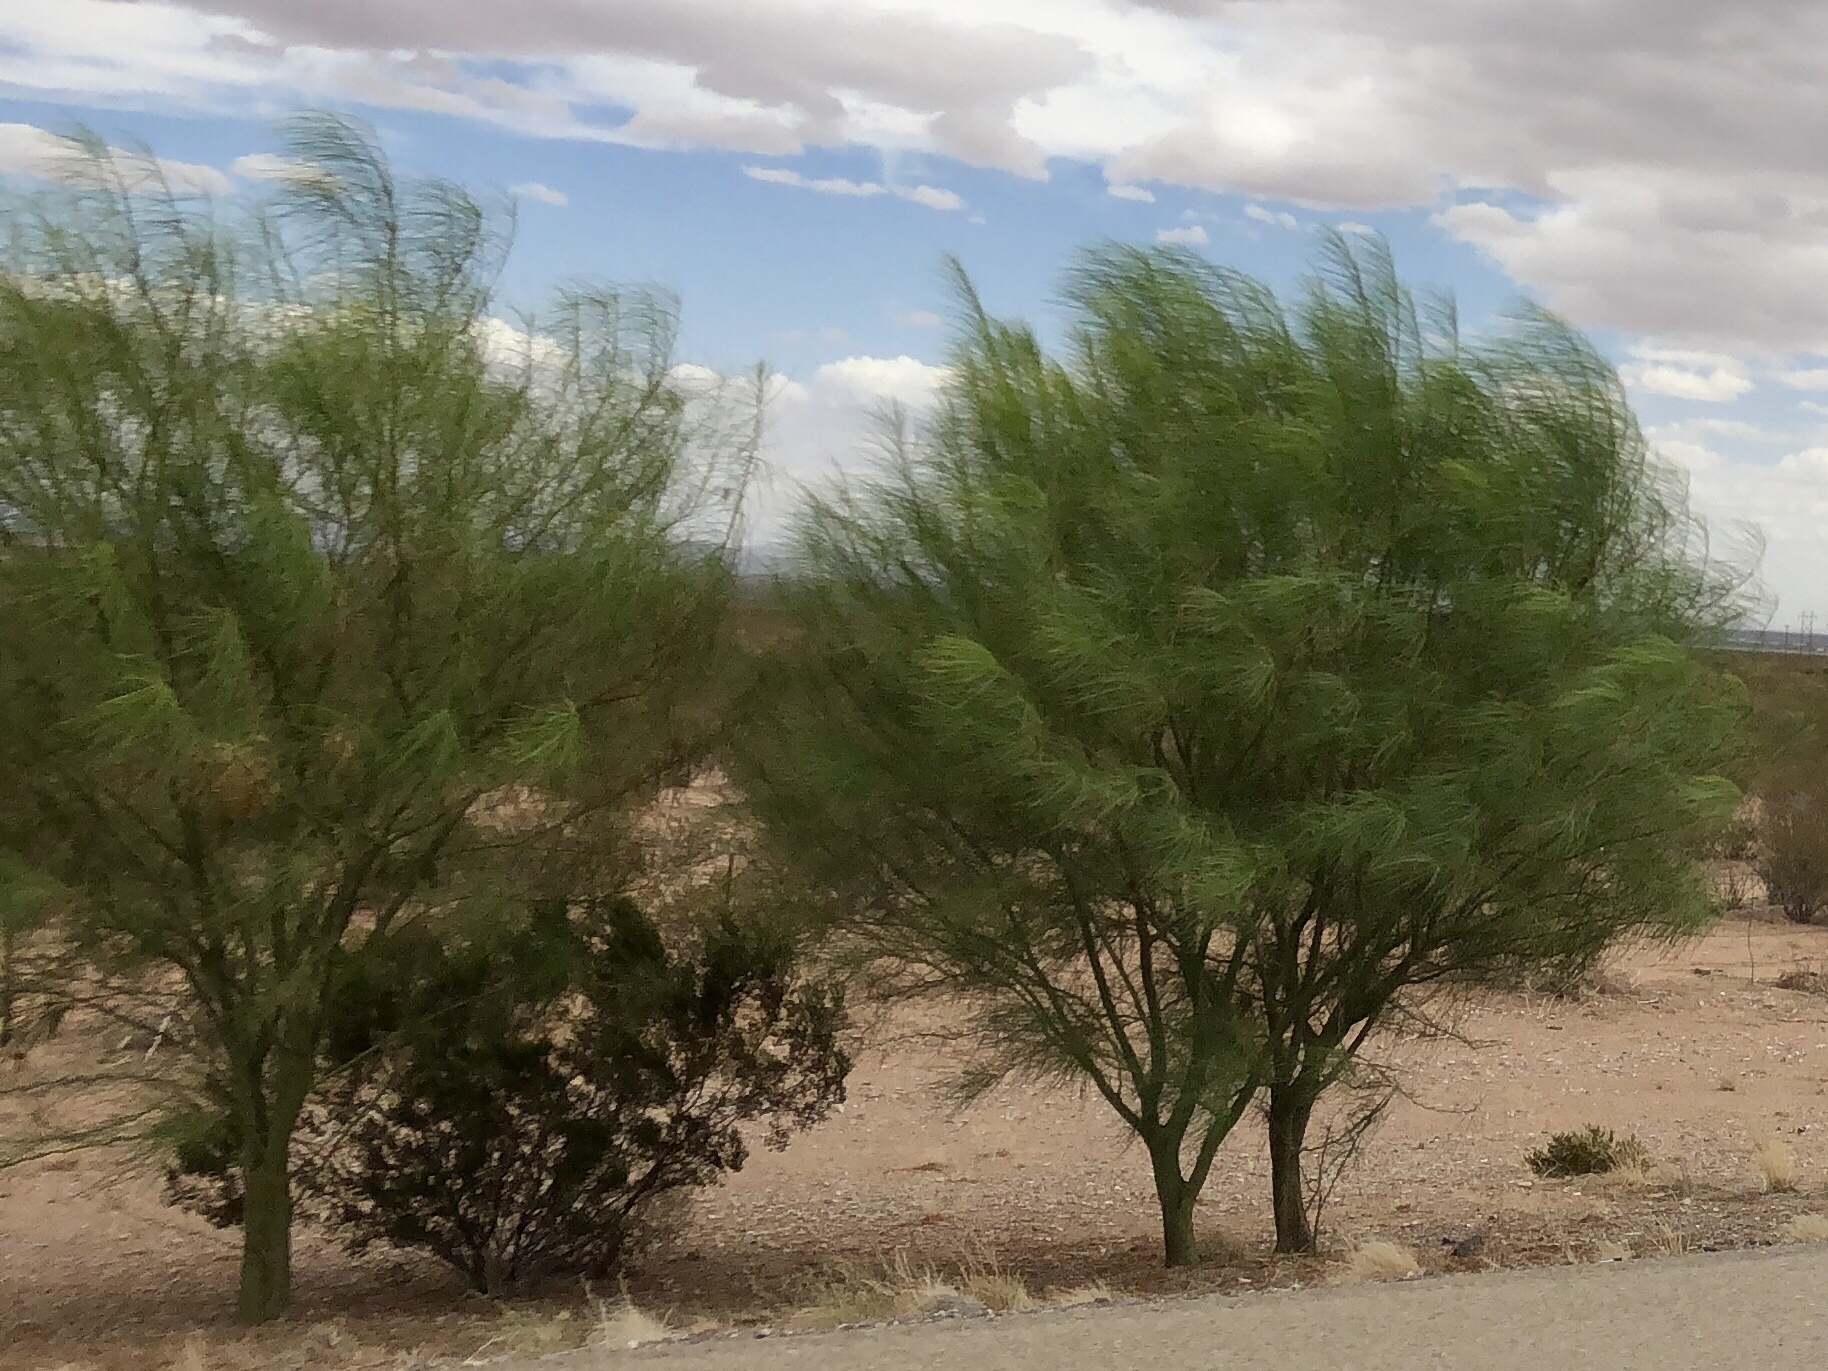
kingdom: Plantae
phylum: Tracheophyta
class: Magnoliopsida
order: Fabales
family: Fabaceae
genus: Parkinsonia
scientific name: Parkinsonia aculeata
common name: Jerusalem thorn
